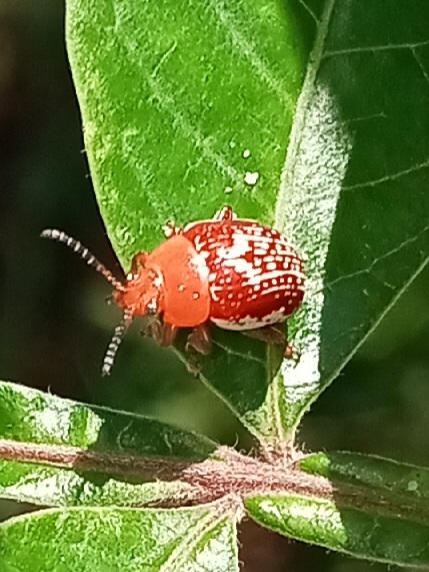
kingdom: Animalia
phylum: Arthropoda
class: Insecta
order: Coleoptera
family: Chrysomelidae
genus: Blepharida
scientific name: Blepharida rhois
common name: Sumac flea beetle
